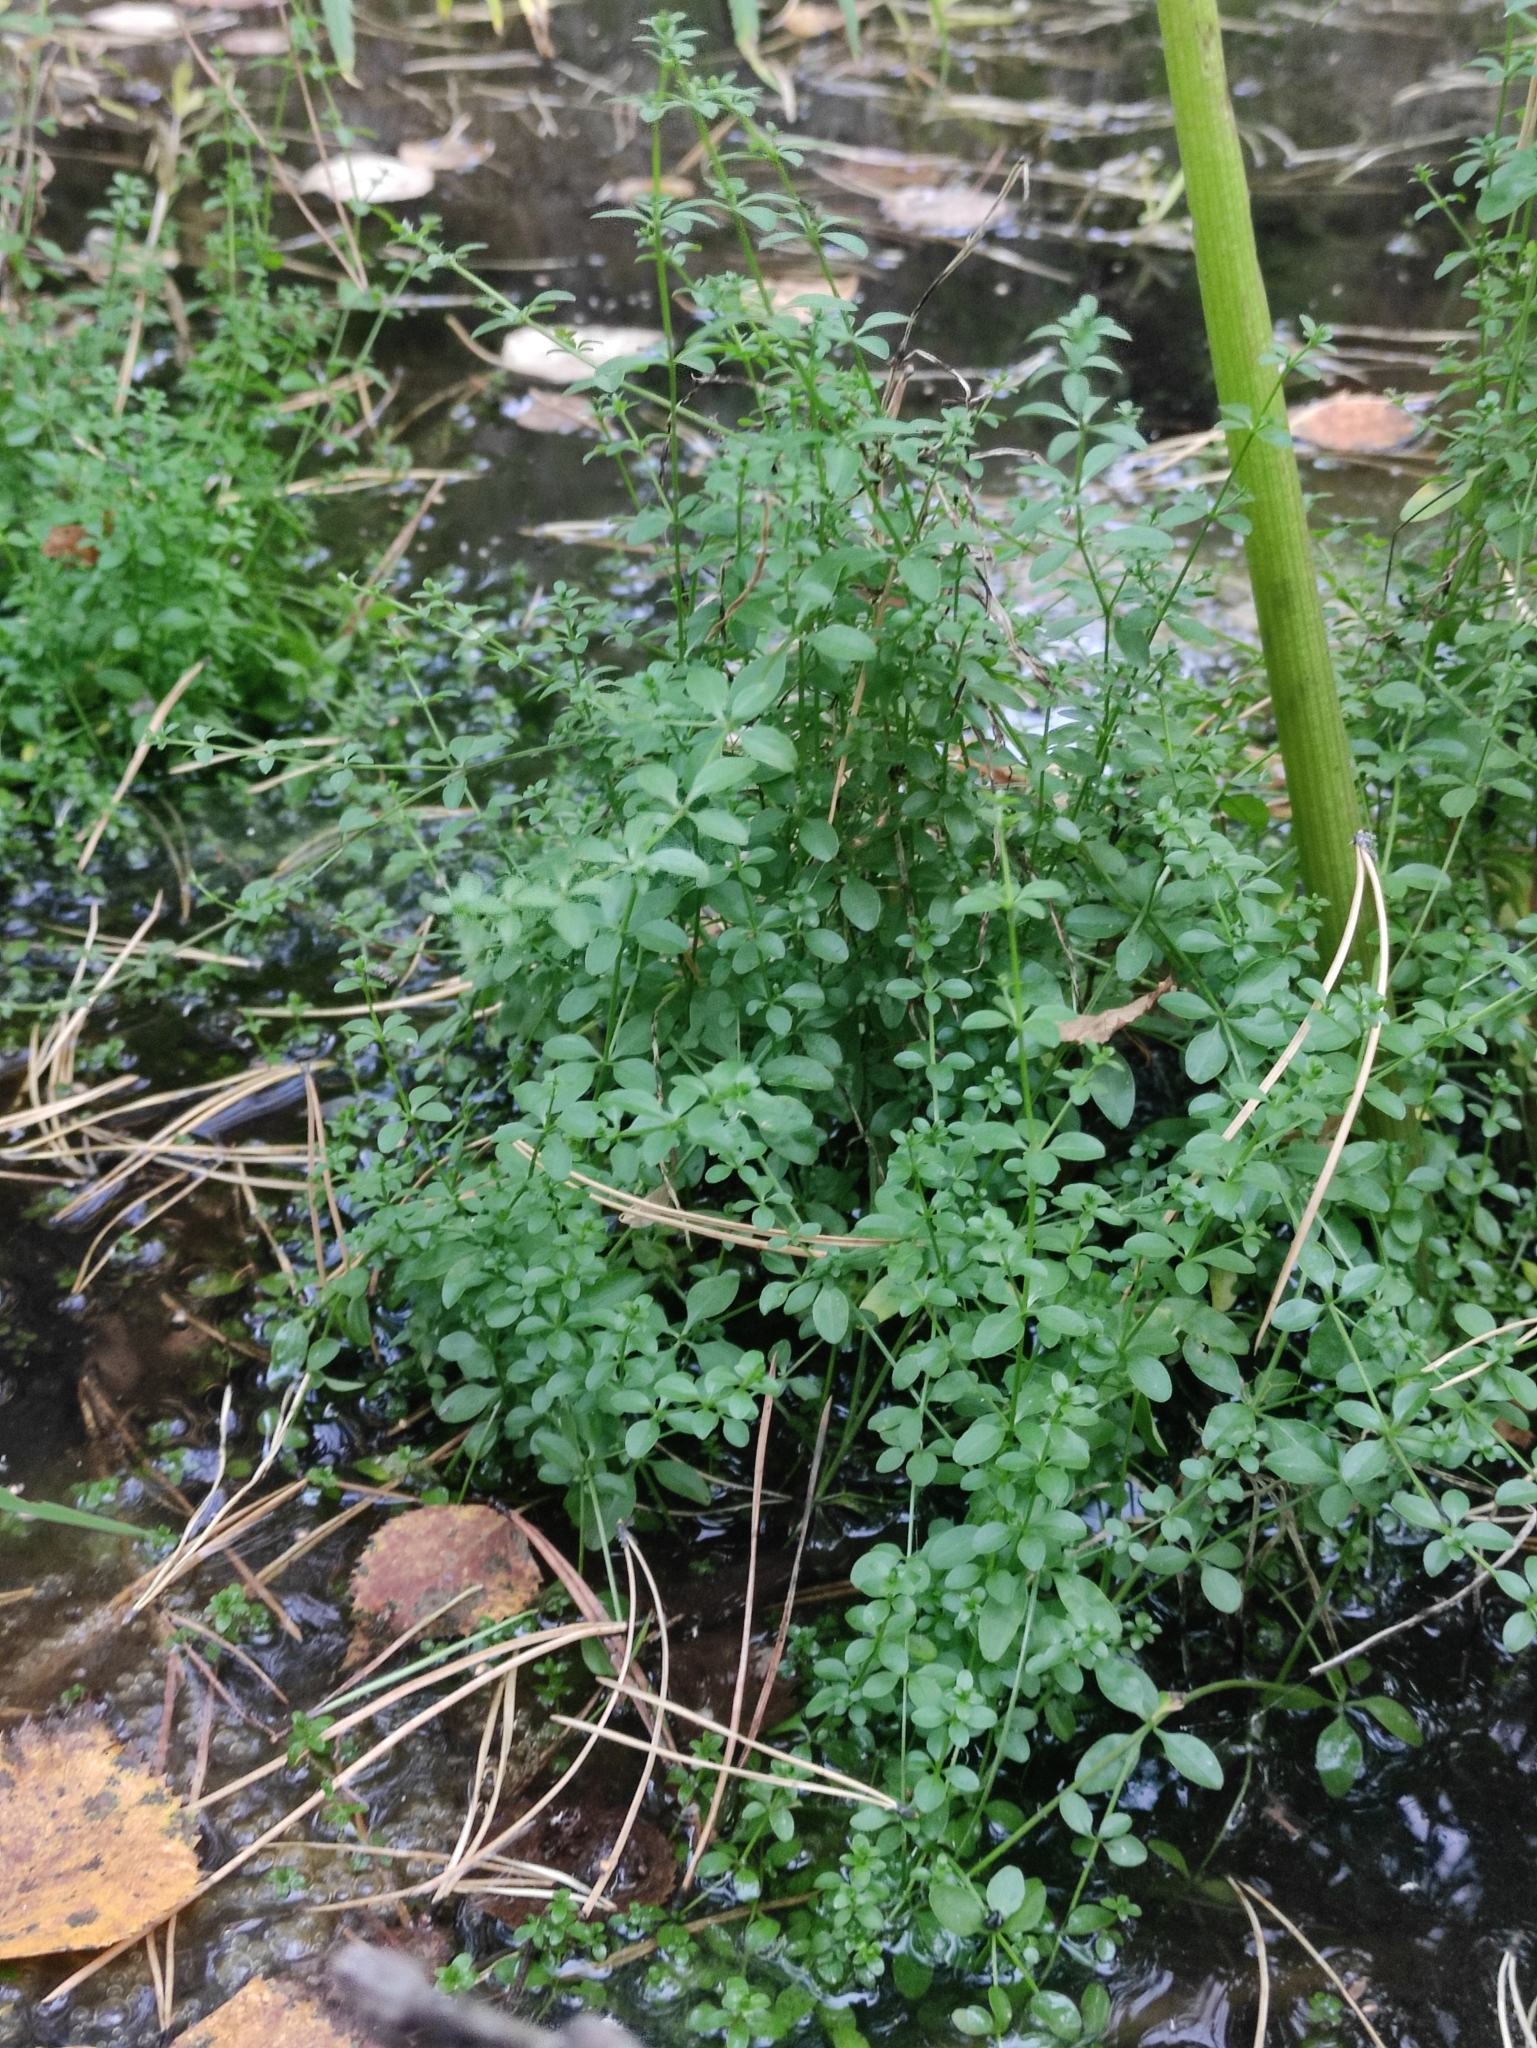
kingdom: Plantae
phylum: Tracheophyta
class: Magnoliopsida
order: Gentianales
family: Rubiaceae
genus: Galium
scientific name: Galium palustre
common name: Common marsh-bedstraw
